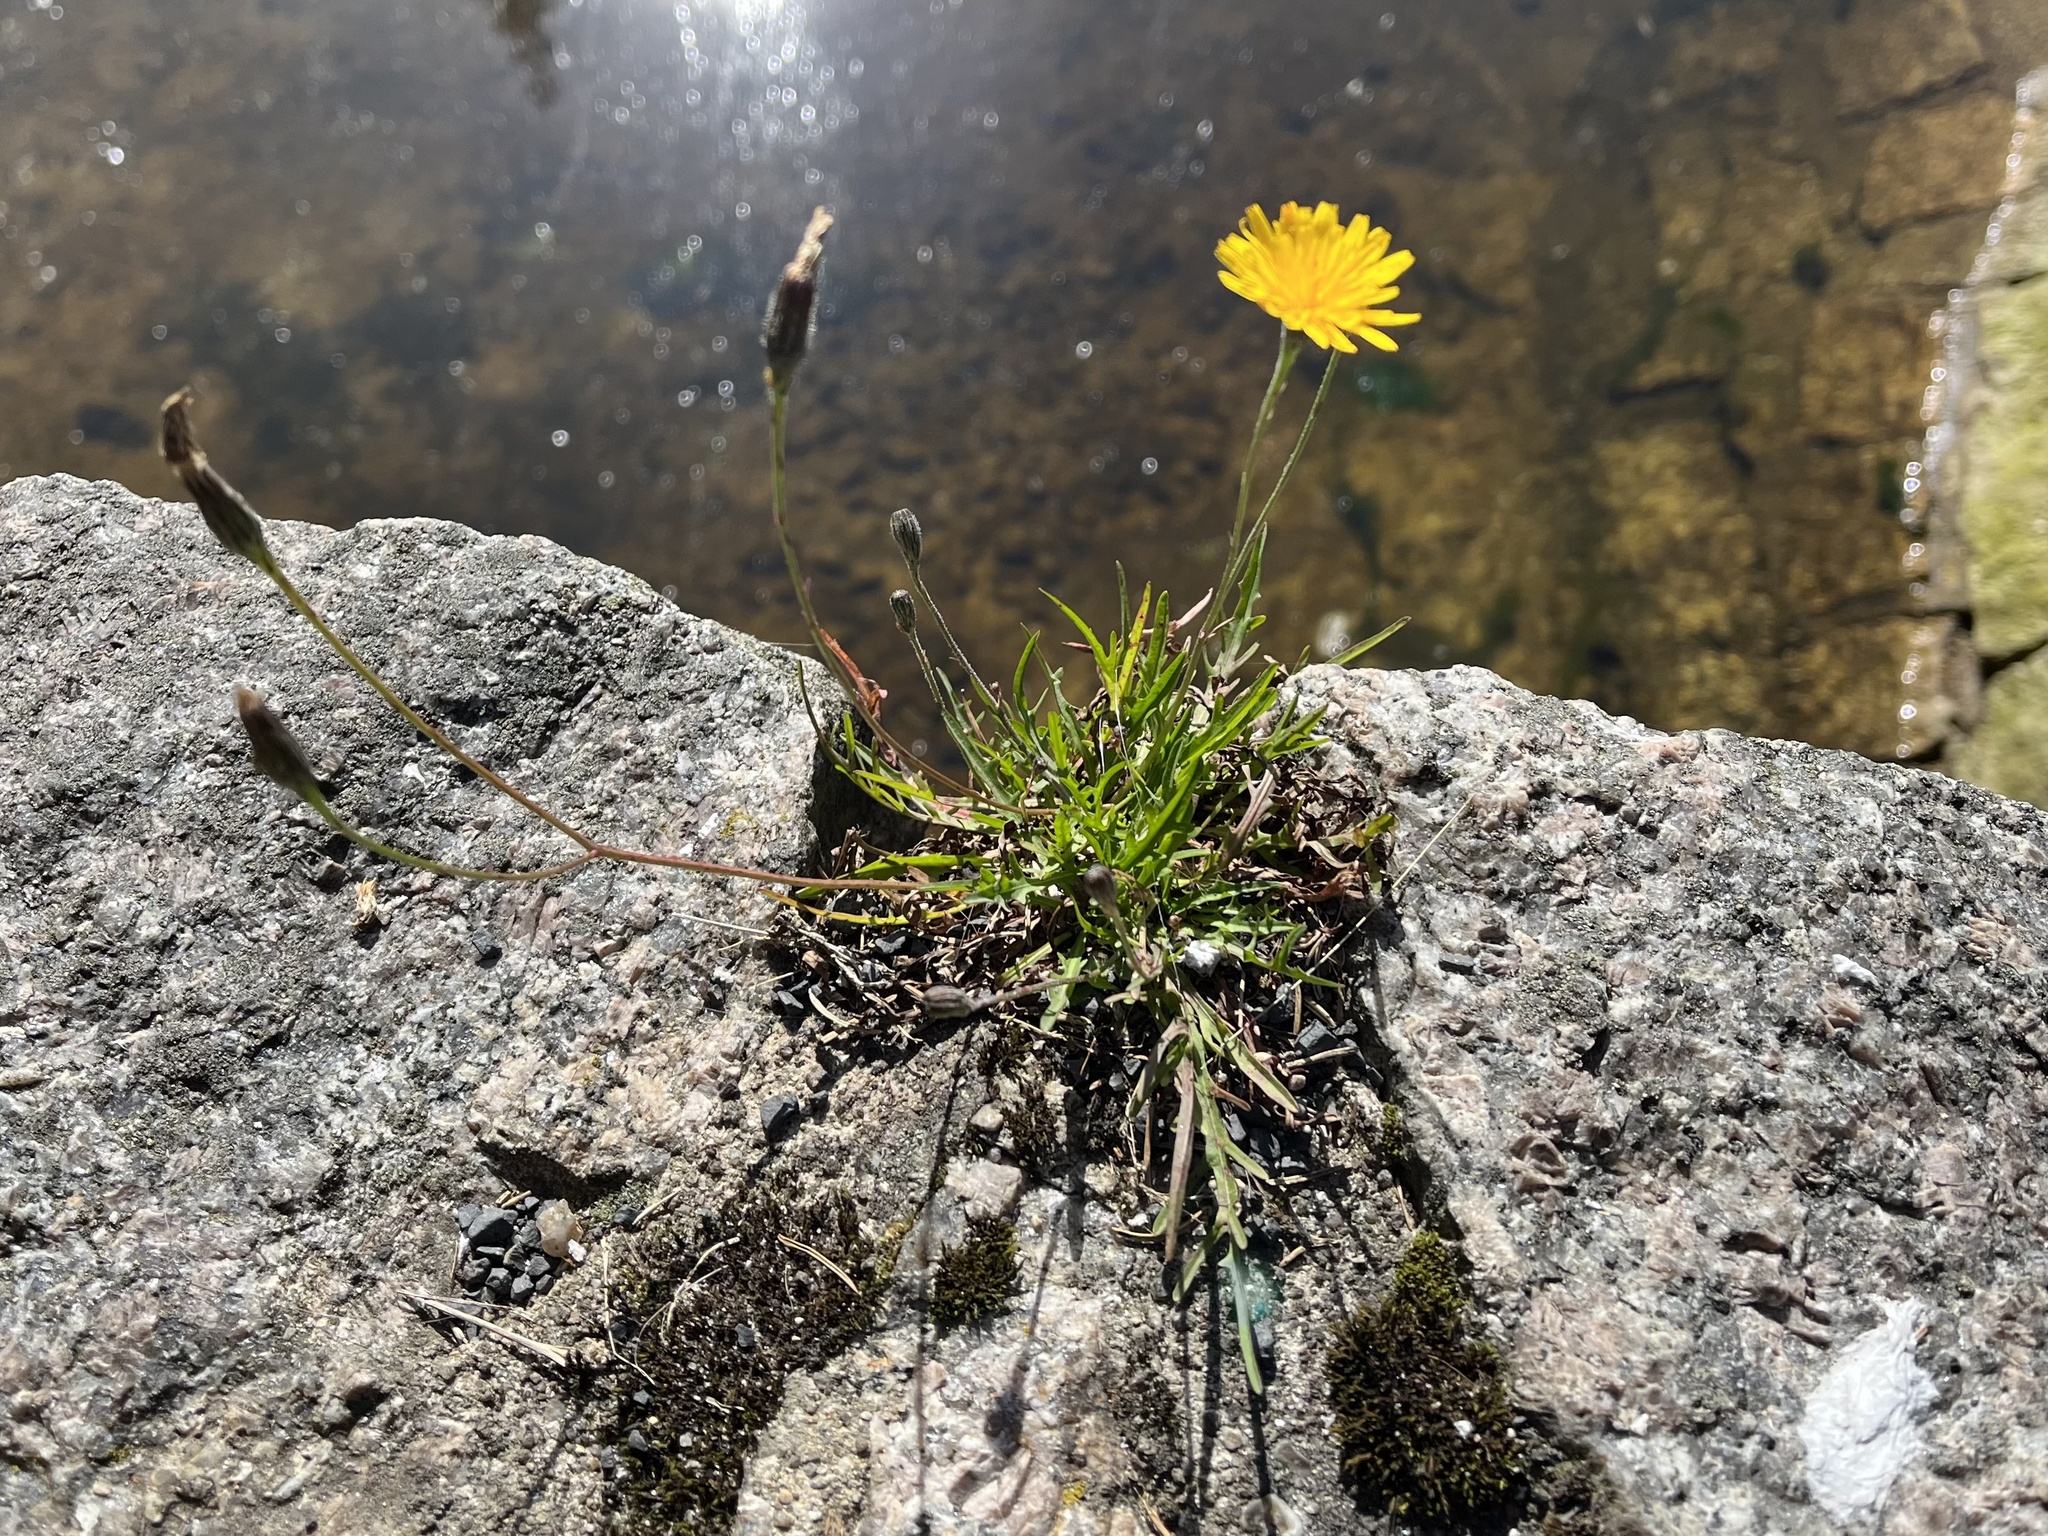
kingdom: Plantae
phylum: Tracheophyta
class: Magnoliopsida
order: Asterales
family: Asteraceae
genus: Scorzoneroides
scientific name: Scorzoneroides autumnalis
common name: Autumn hawkbit
